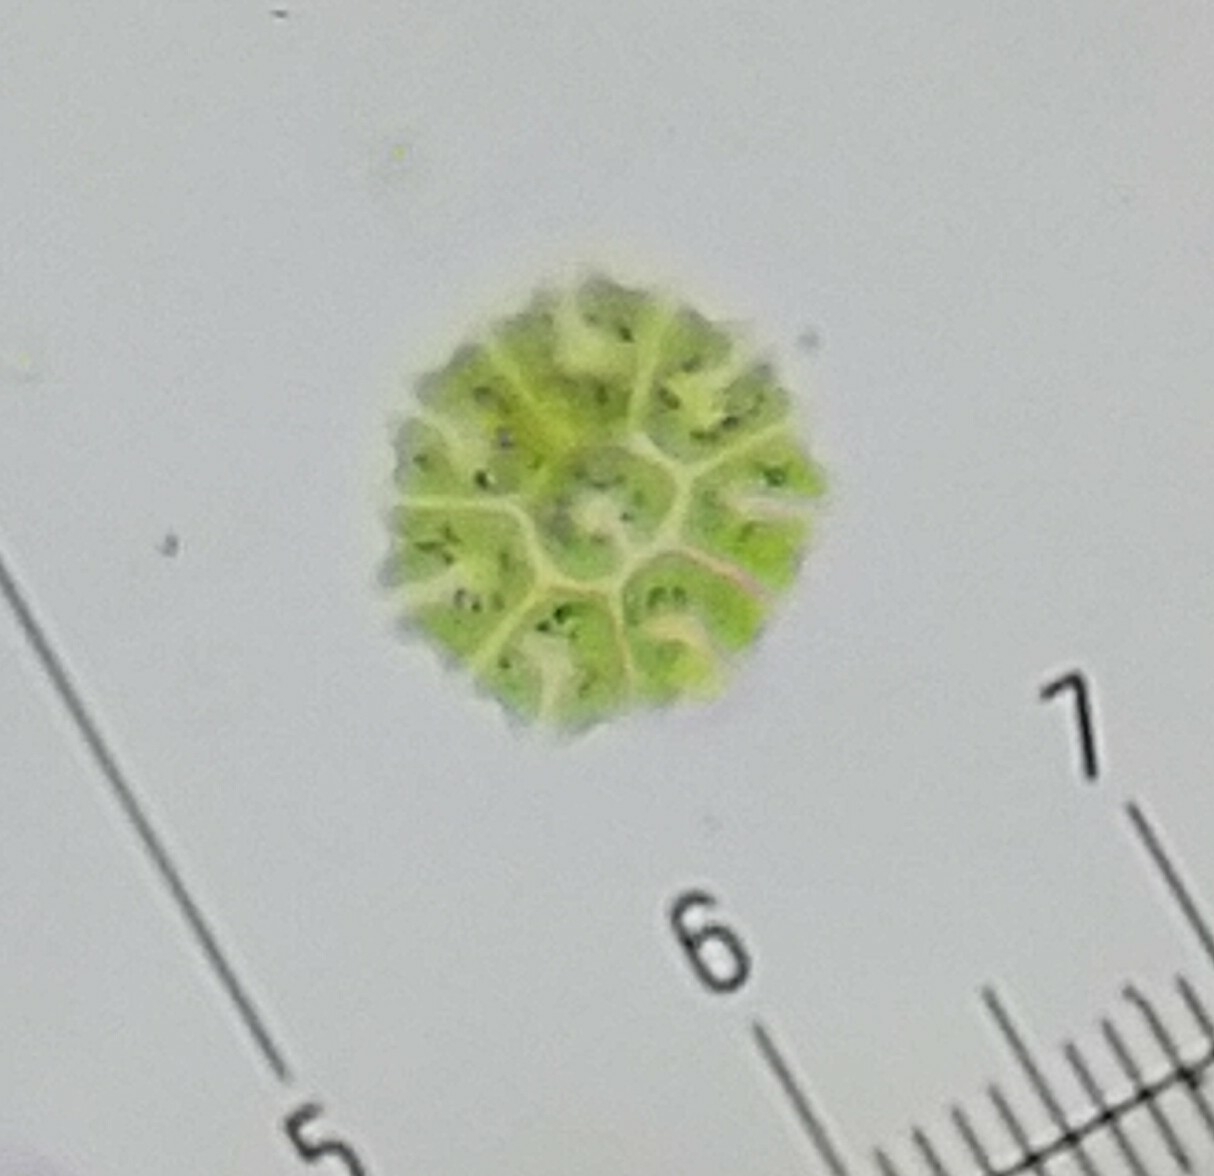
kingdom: Plantae
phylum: Chlorophyta
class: Chlorophyceae
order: Sphaeropleales
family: Hydrodictyaceae
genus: Stauridium
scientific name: Stauridium tetras
